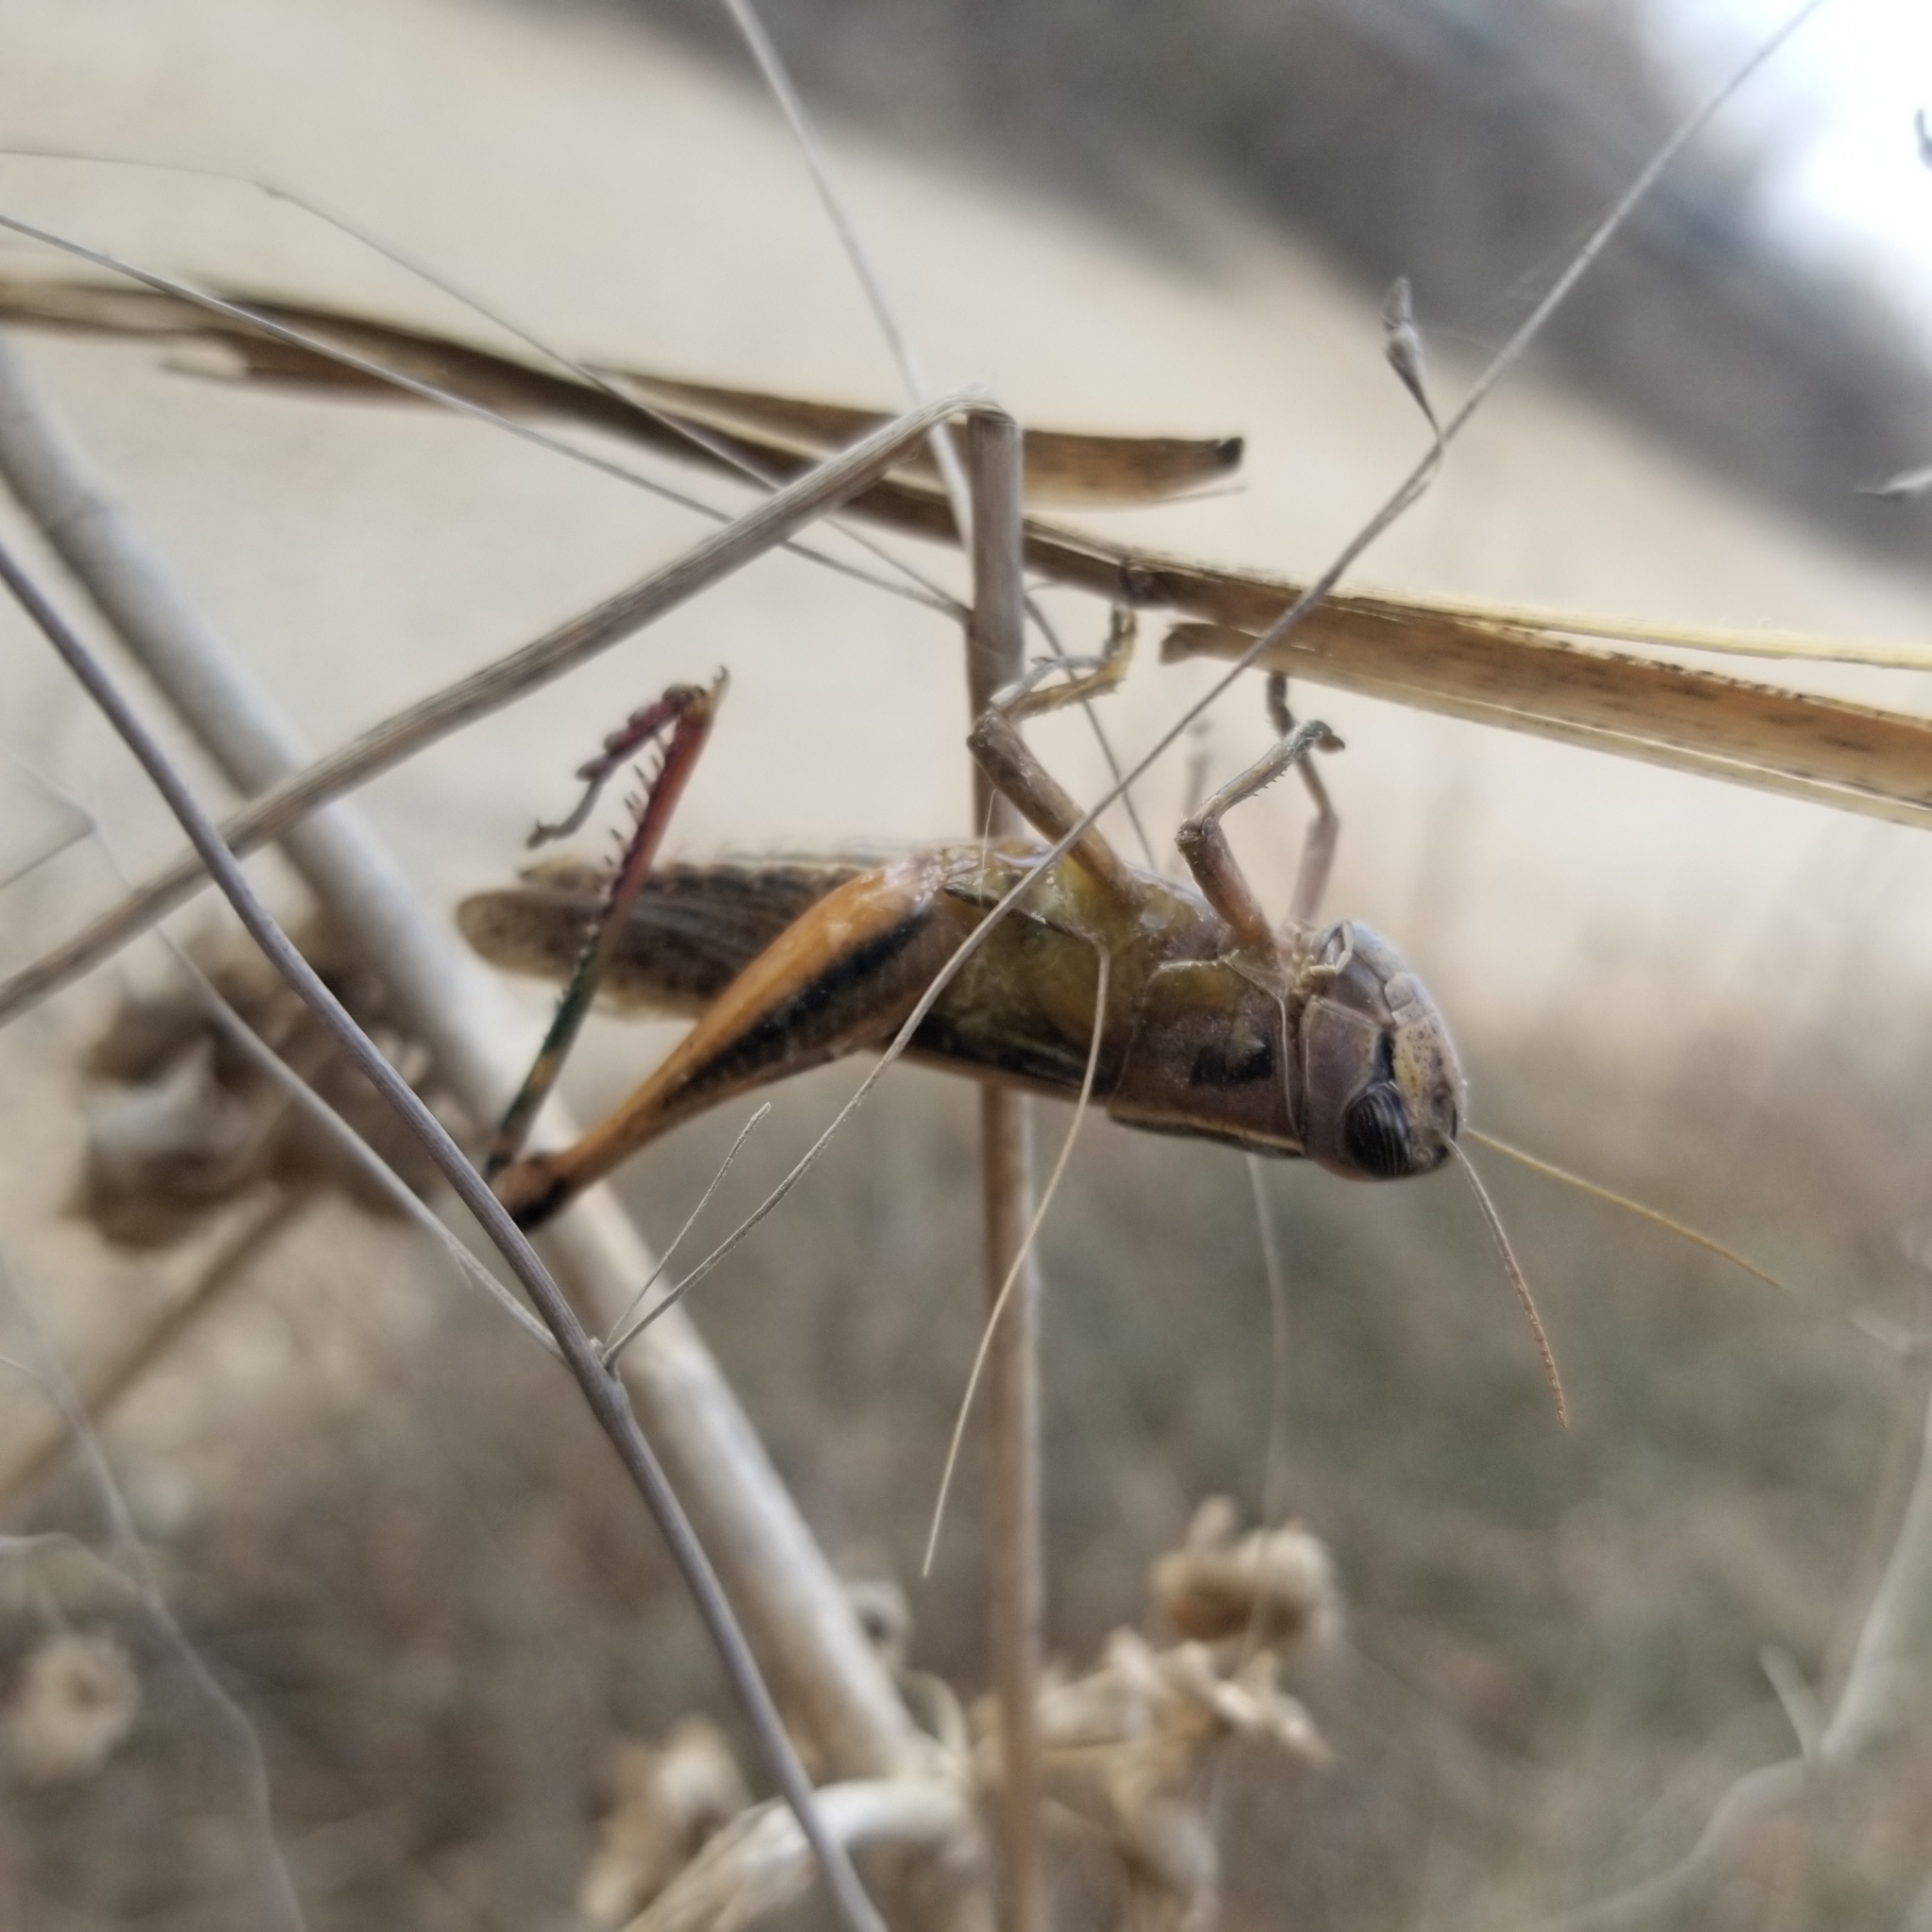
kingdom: Animalia
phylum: Arthropoda
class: Insecta
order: Orthoptera
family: Acrididae
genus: Eyprepocnemis
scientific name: Eyprepocnemis plorans
